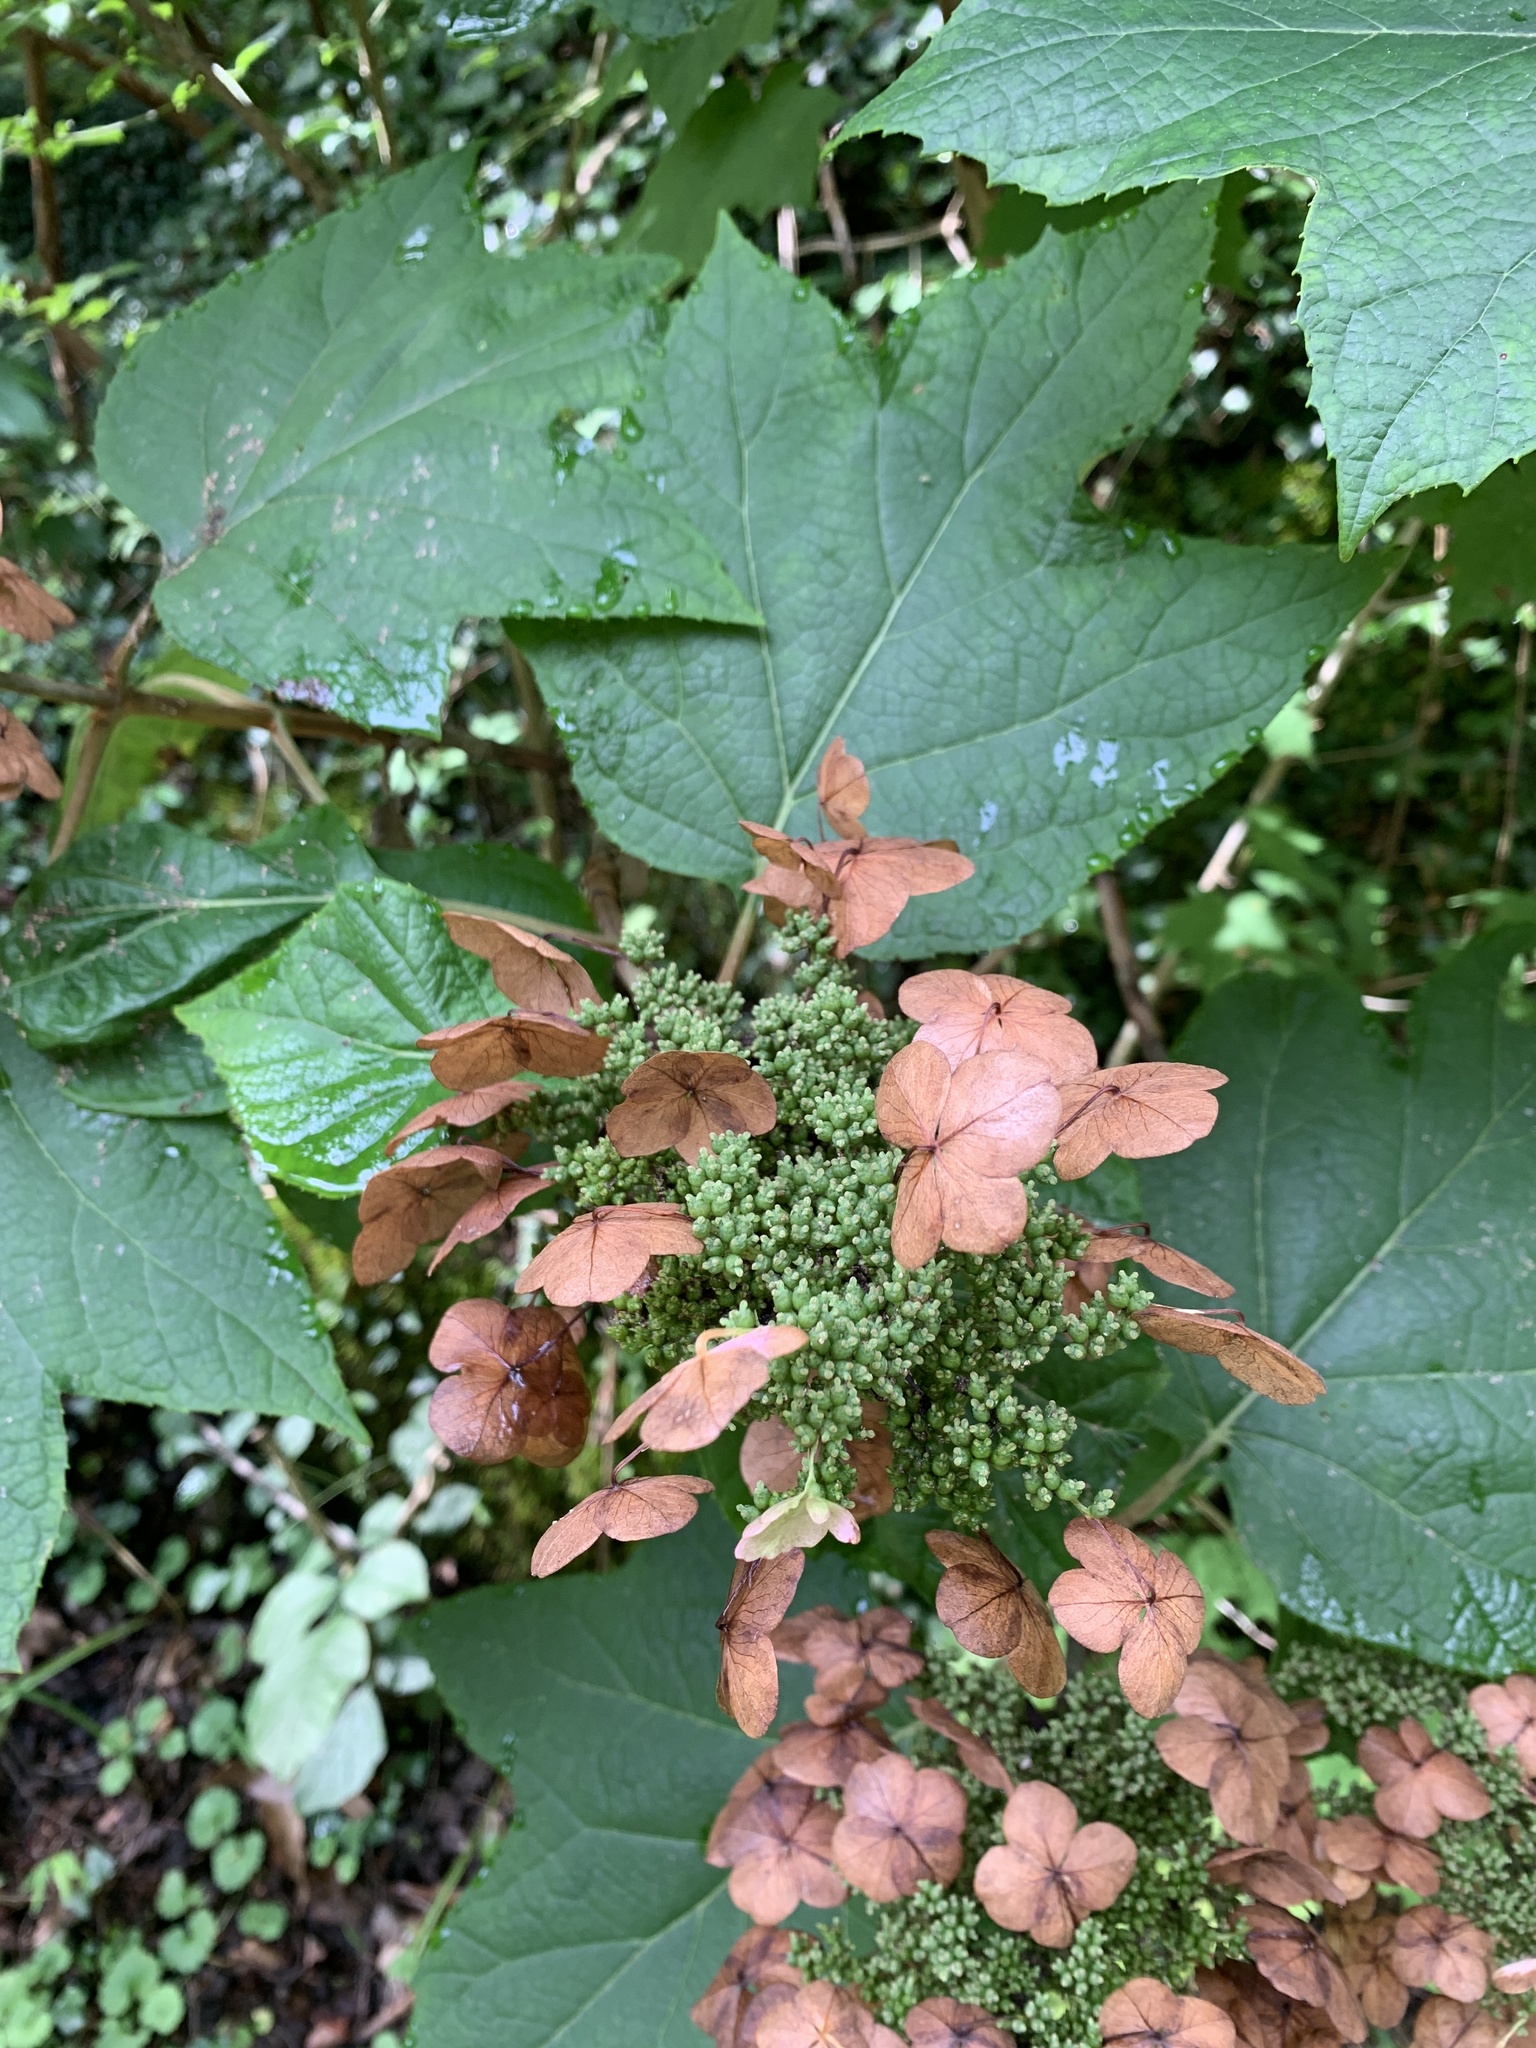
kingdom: Plantae
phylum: Tracheophyta
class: Magnoliopsida
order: Cornales
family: Hydrangeaceae
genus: Hydrangea
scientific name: Hydrangea quercifolia
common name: Oak-leaf hydrangea
